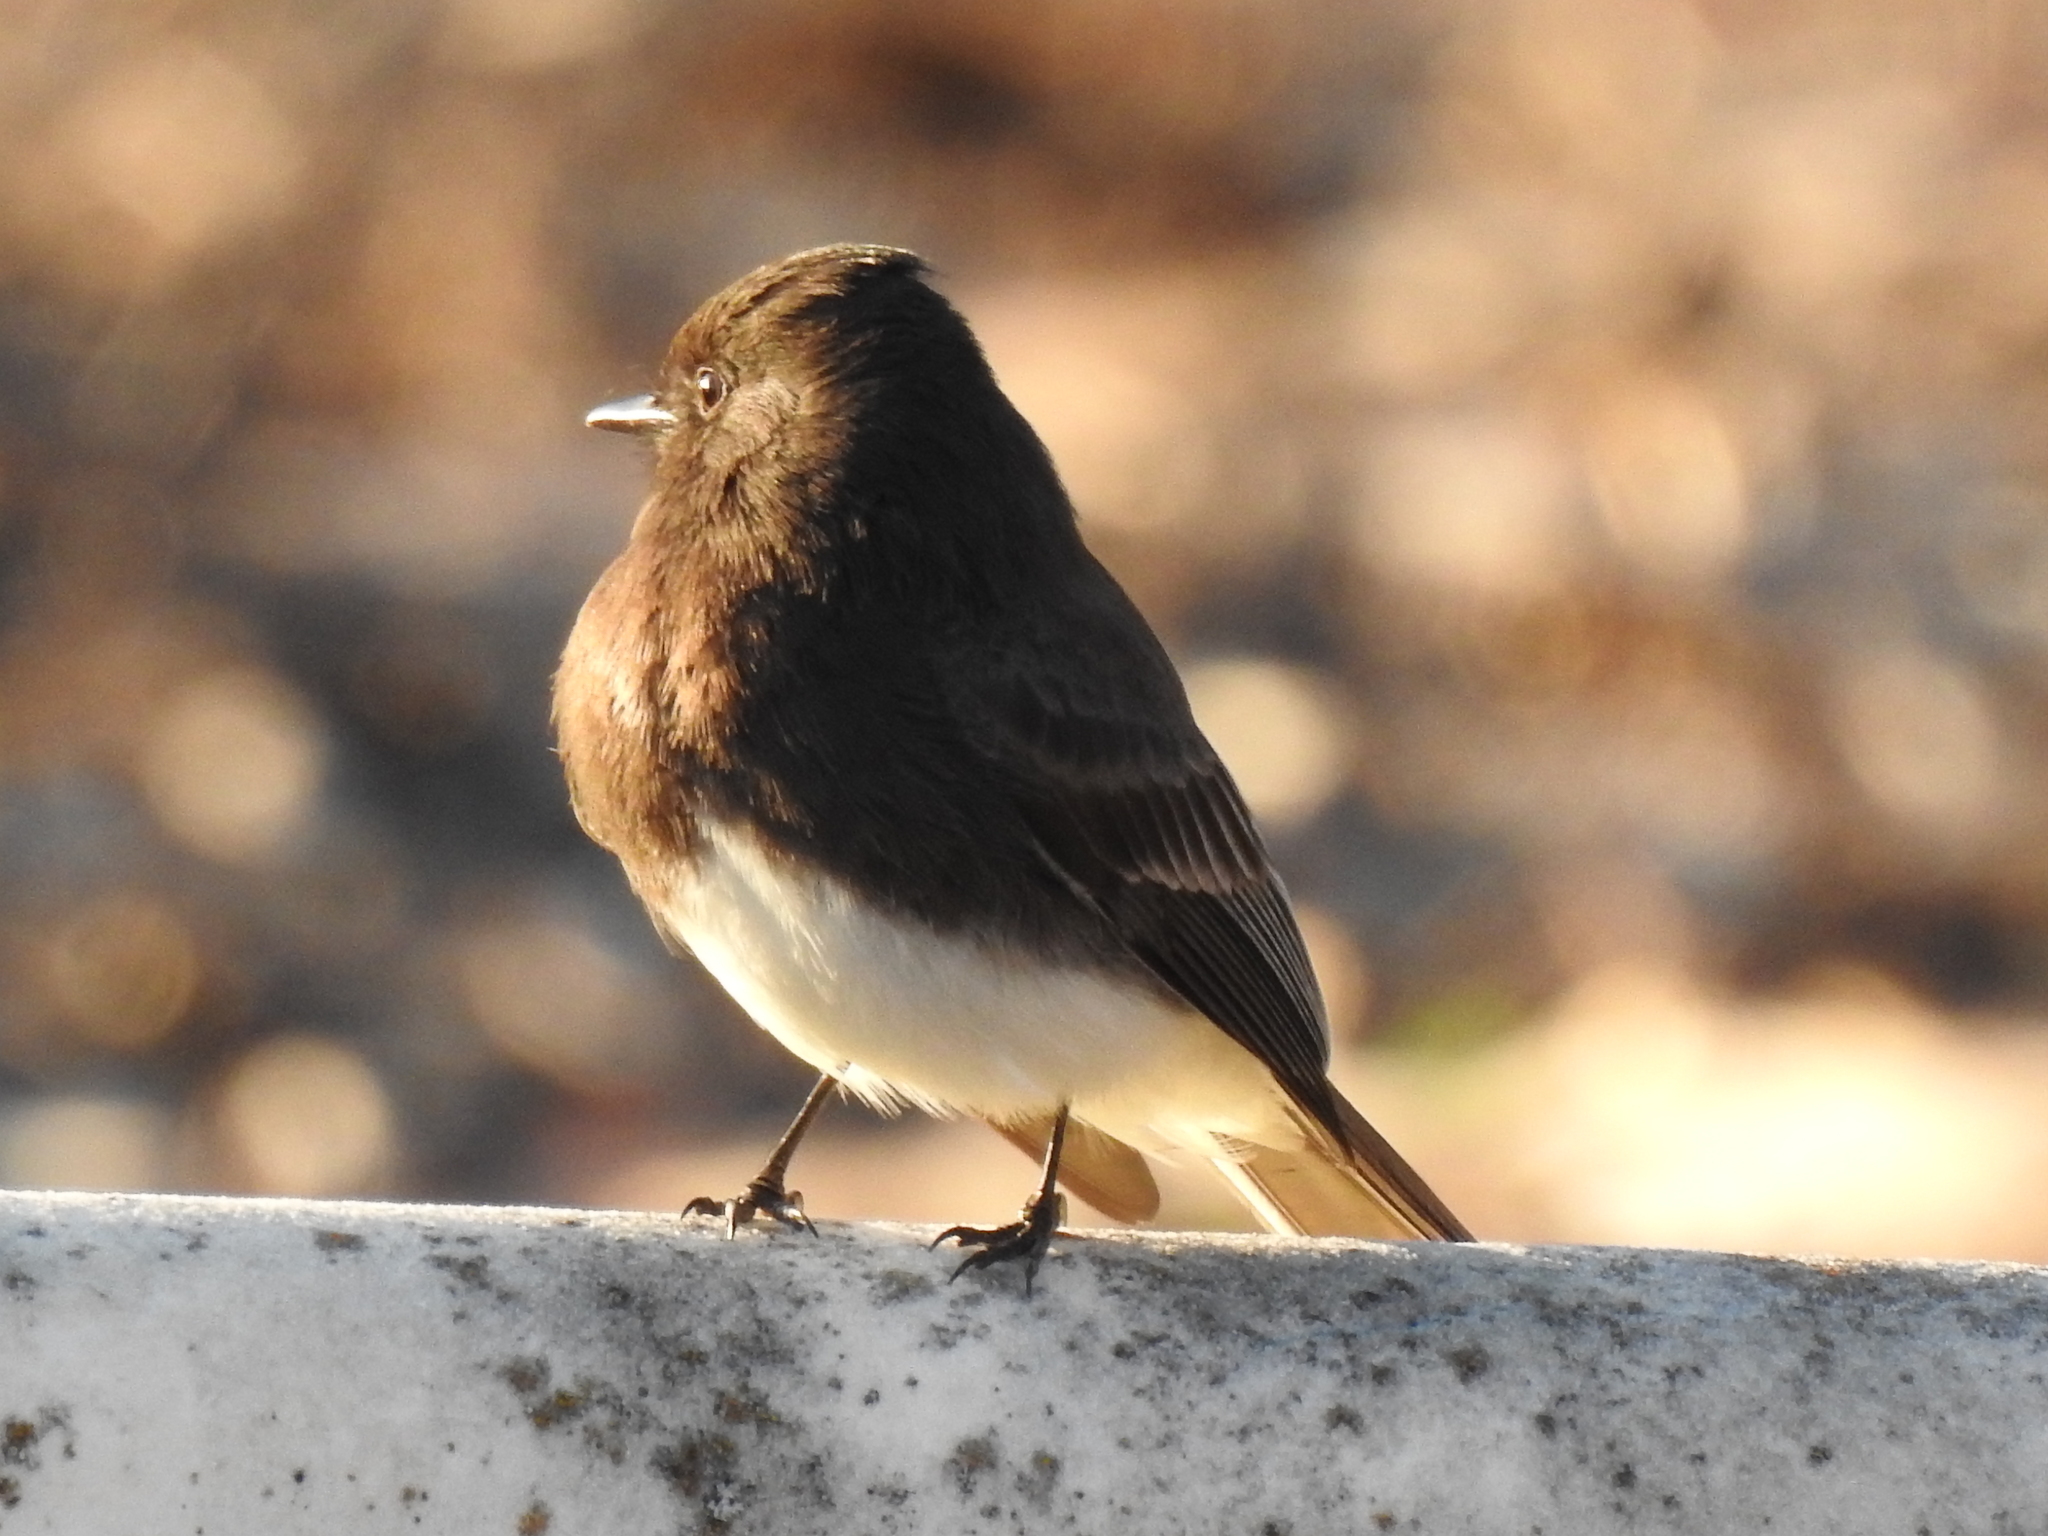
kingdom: Animalia
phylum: Chordata
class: Aves
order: Passeriformes
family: Tyrannidae
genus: Sayornis
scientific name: Sayornis nigricans
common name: Black phoebe
